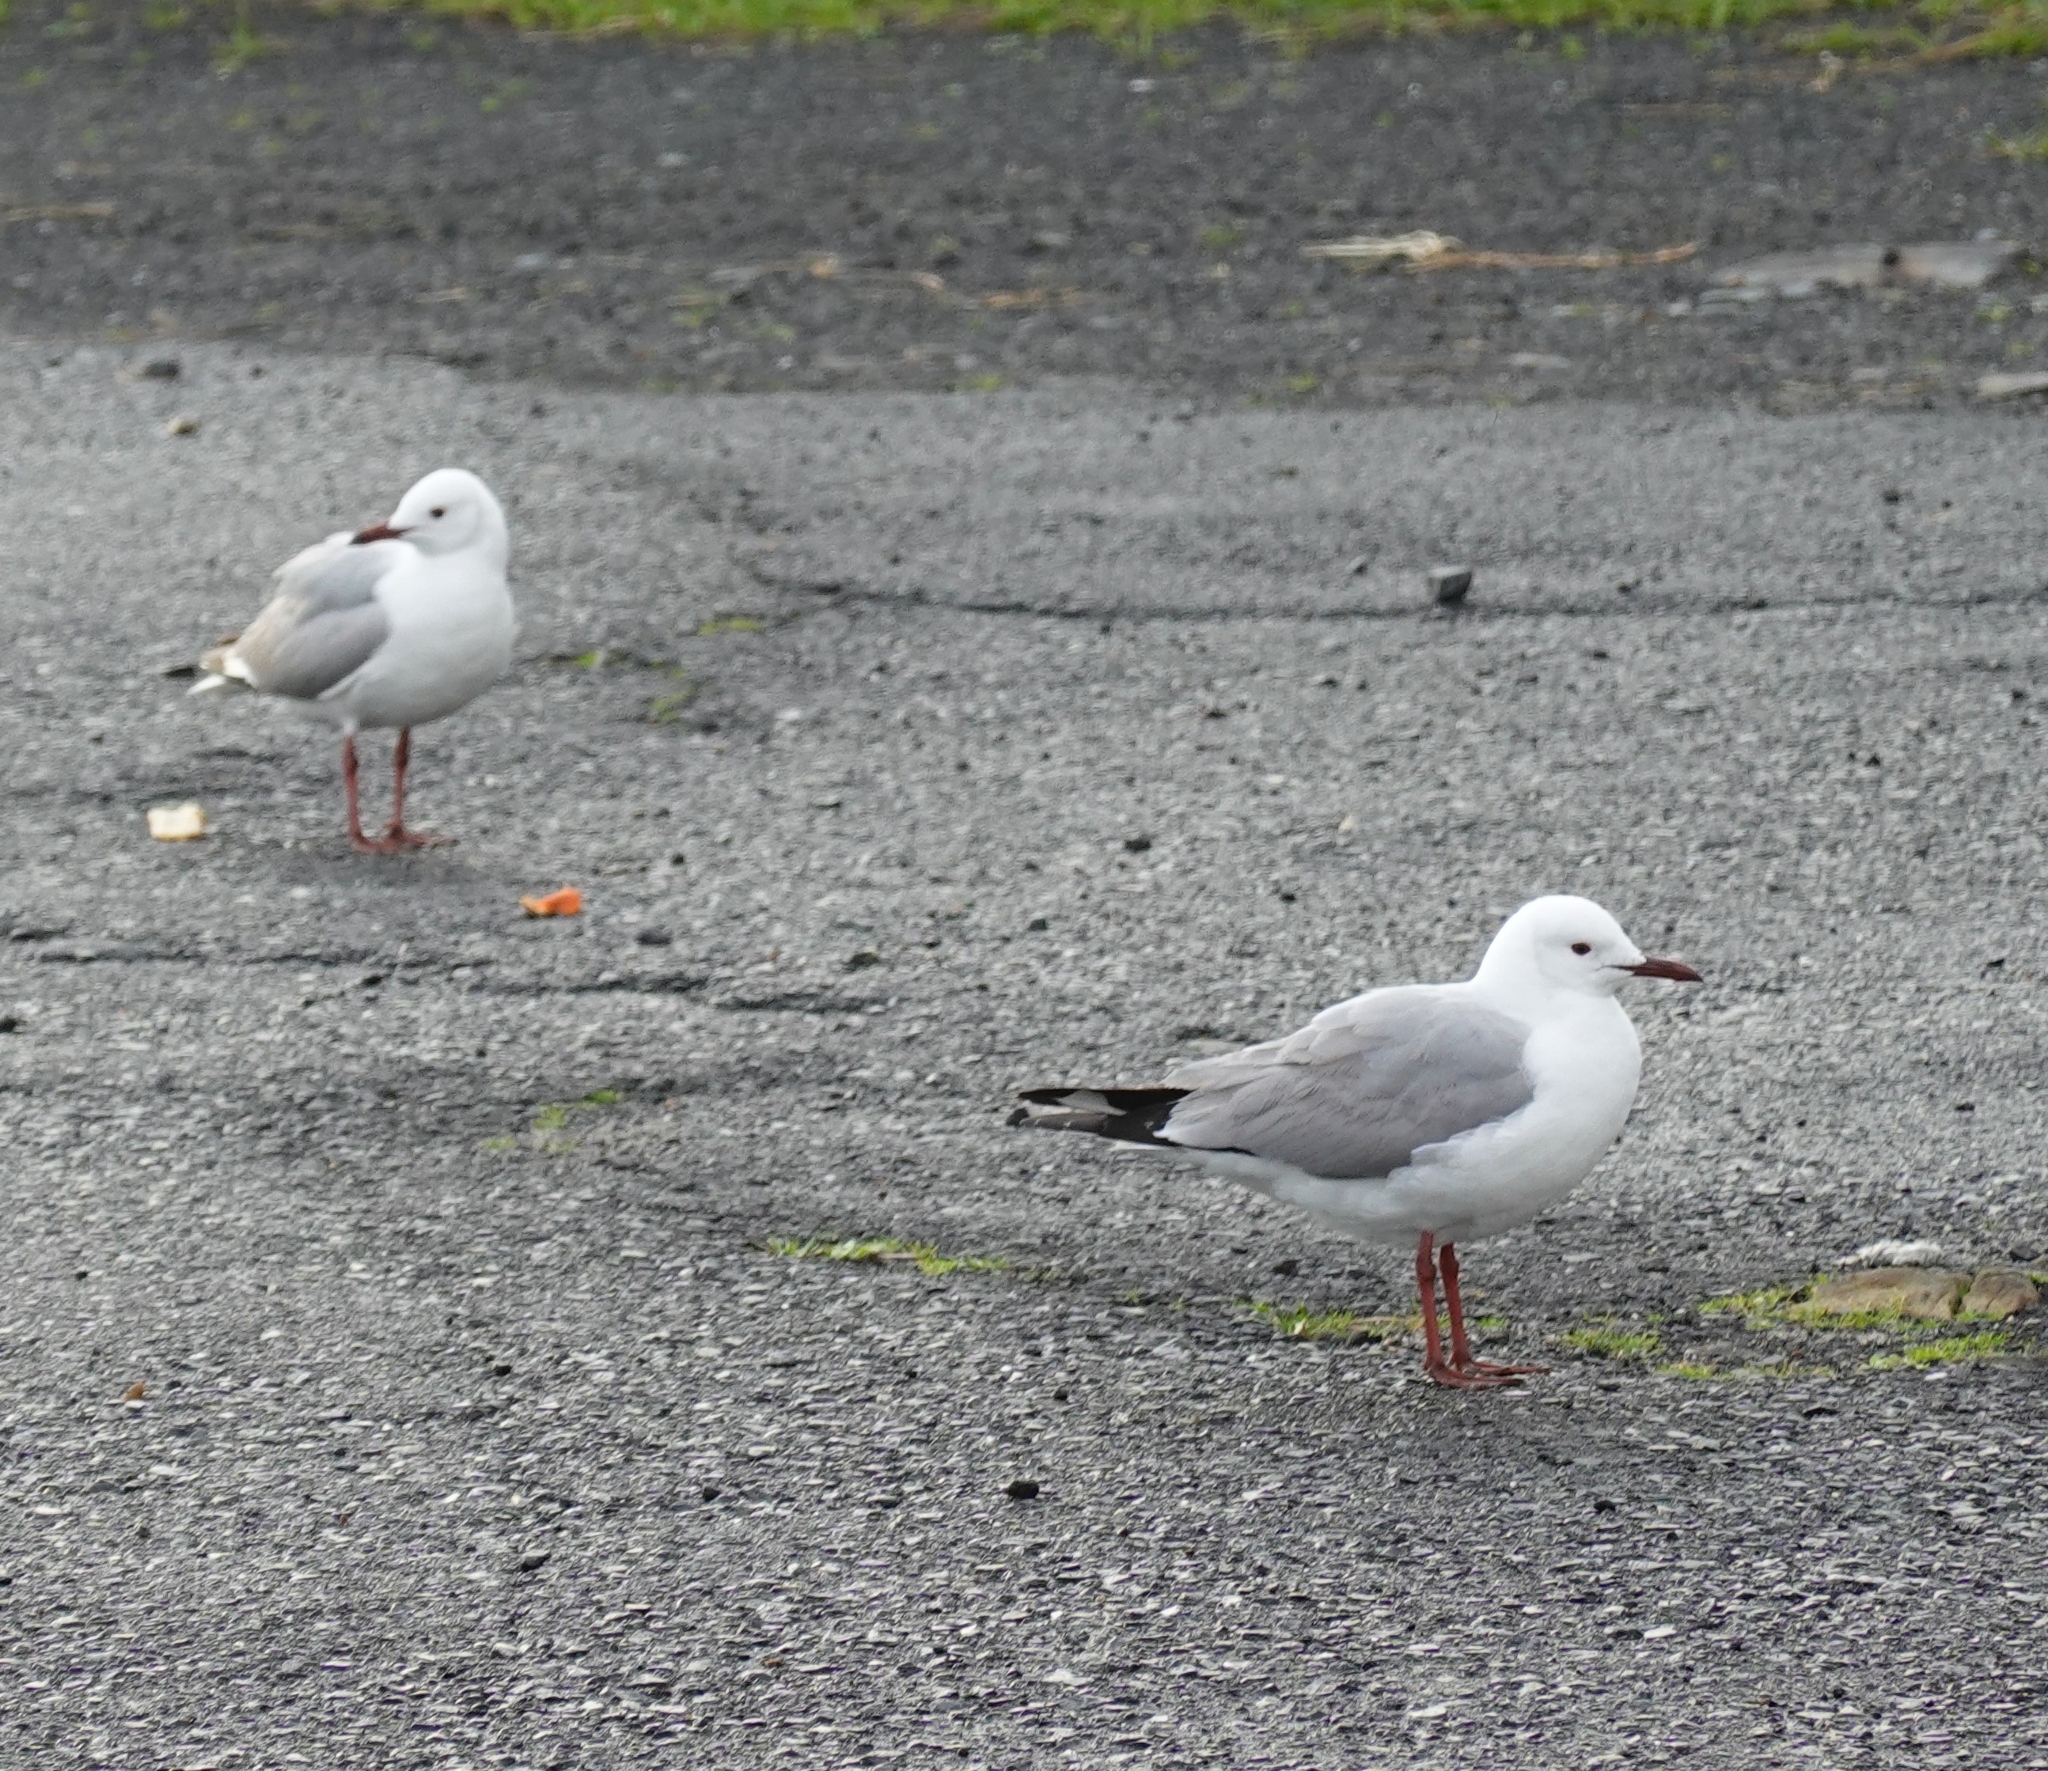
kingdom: Animalia
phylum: Chordata
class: Aves
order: Charadriiformes
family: Laridae
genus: Chroicocephalus
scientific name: Chroicocephalus hartlaubii
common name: Hartlaub's gull
